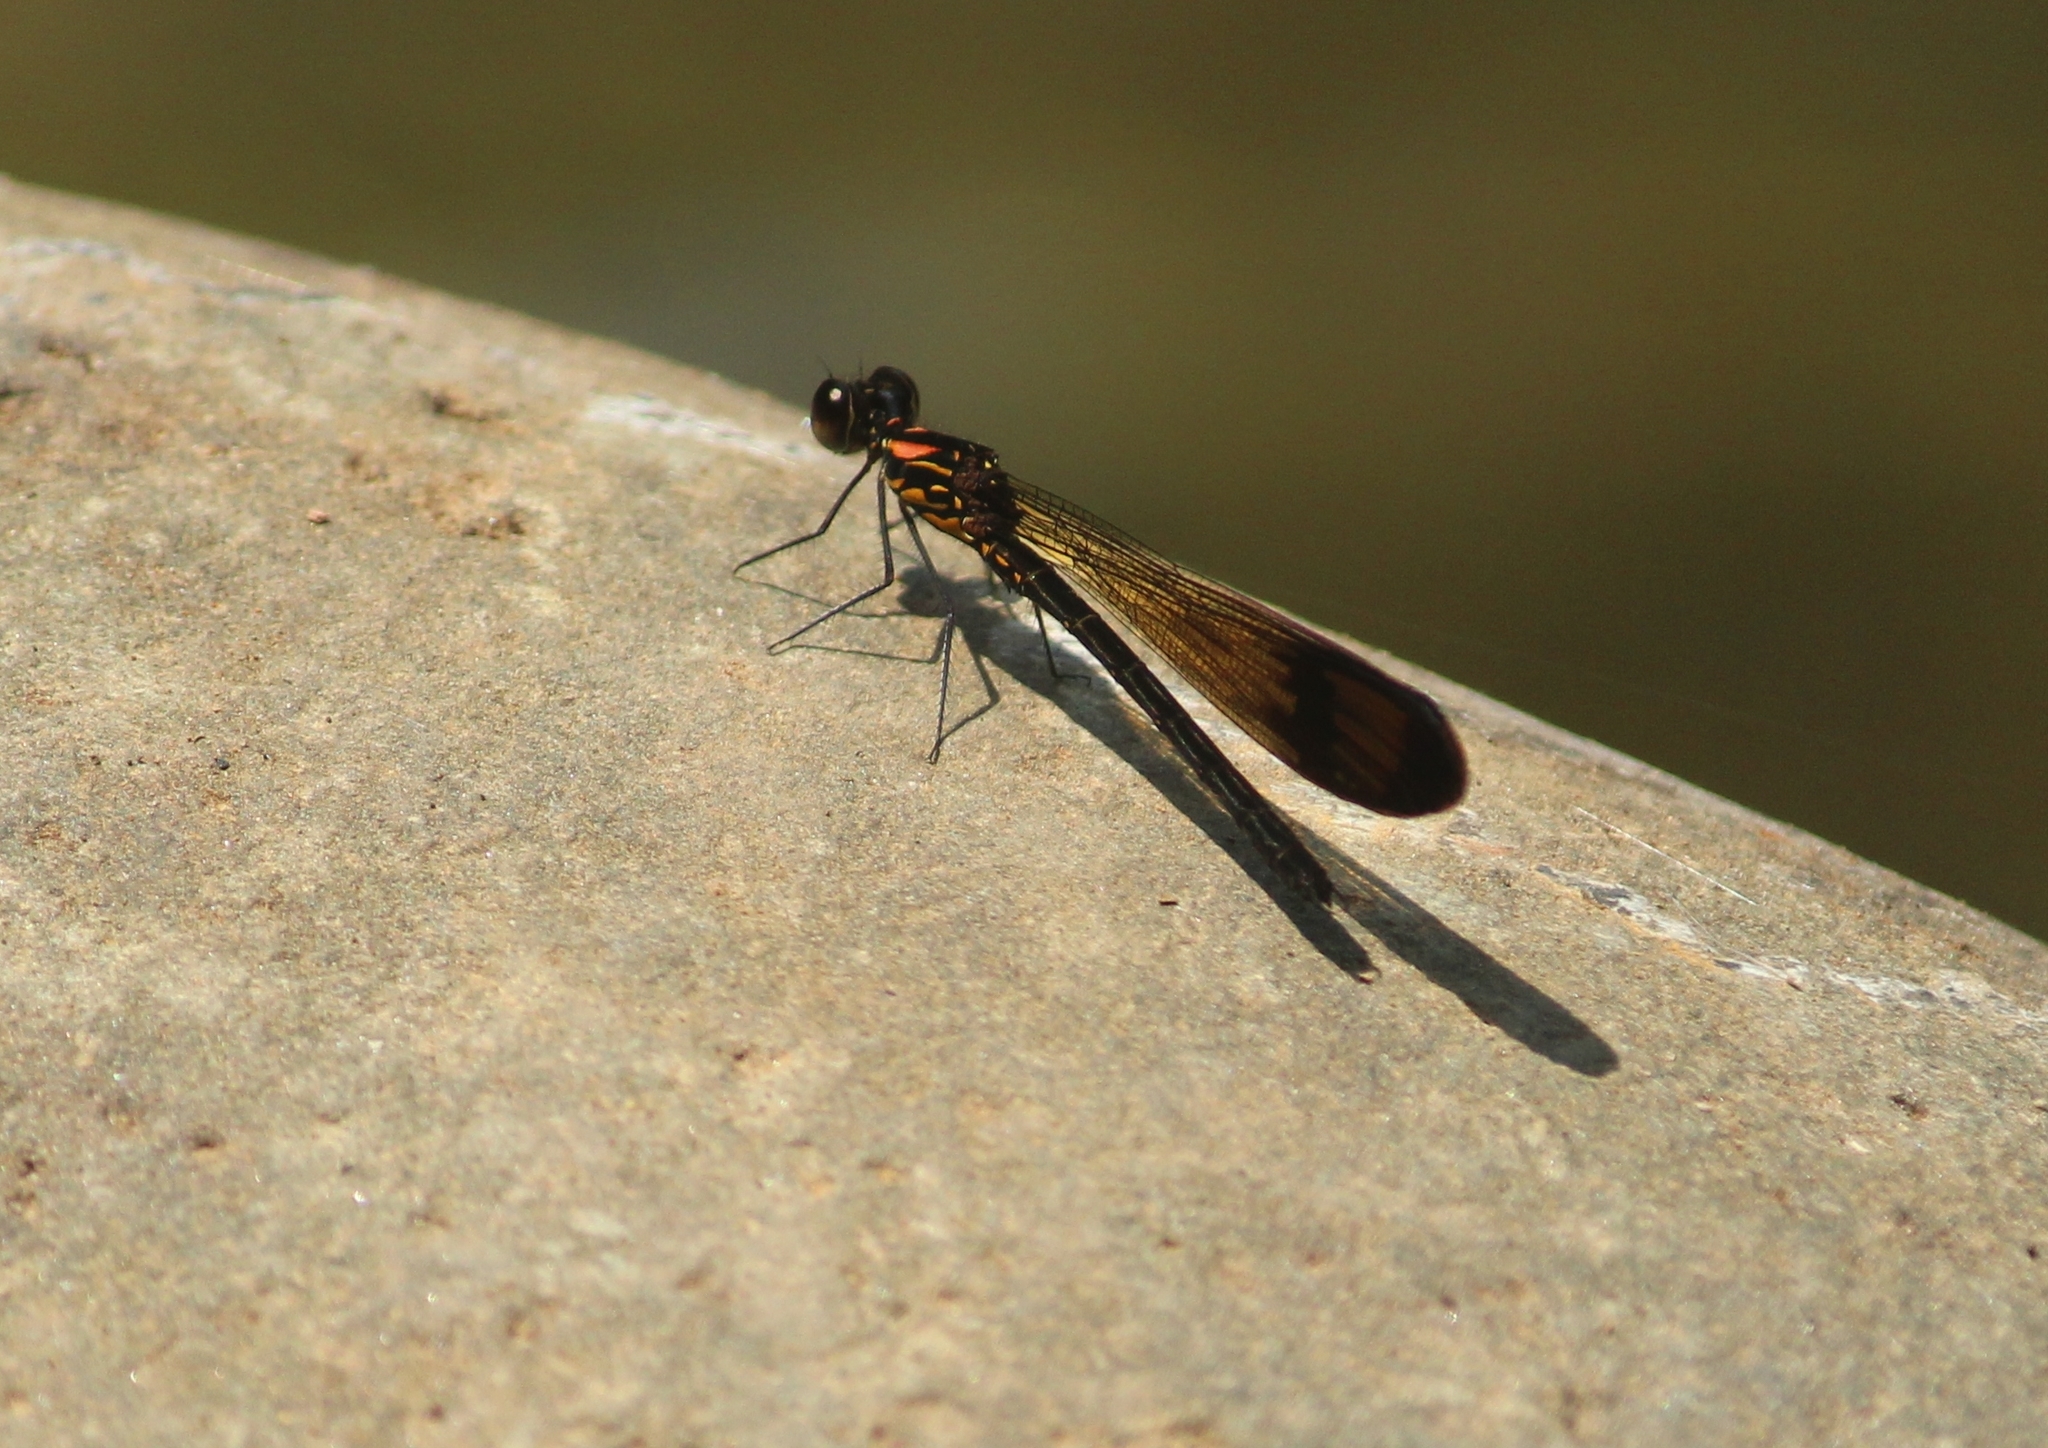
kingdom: Animalia
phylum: Arthropoda
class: Insecta
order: Odonata
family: Chlorocyphidae
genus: Heliocypha
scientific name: Heliocypha bisignata
